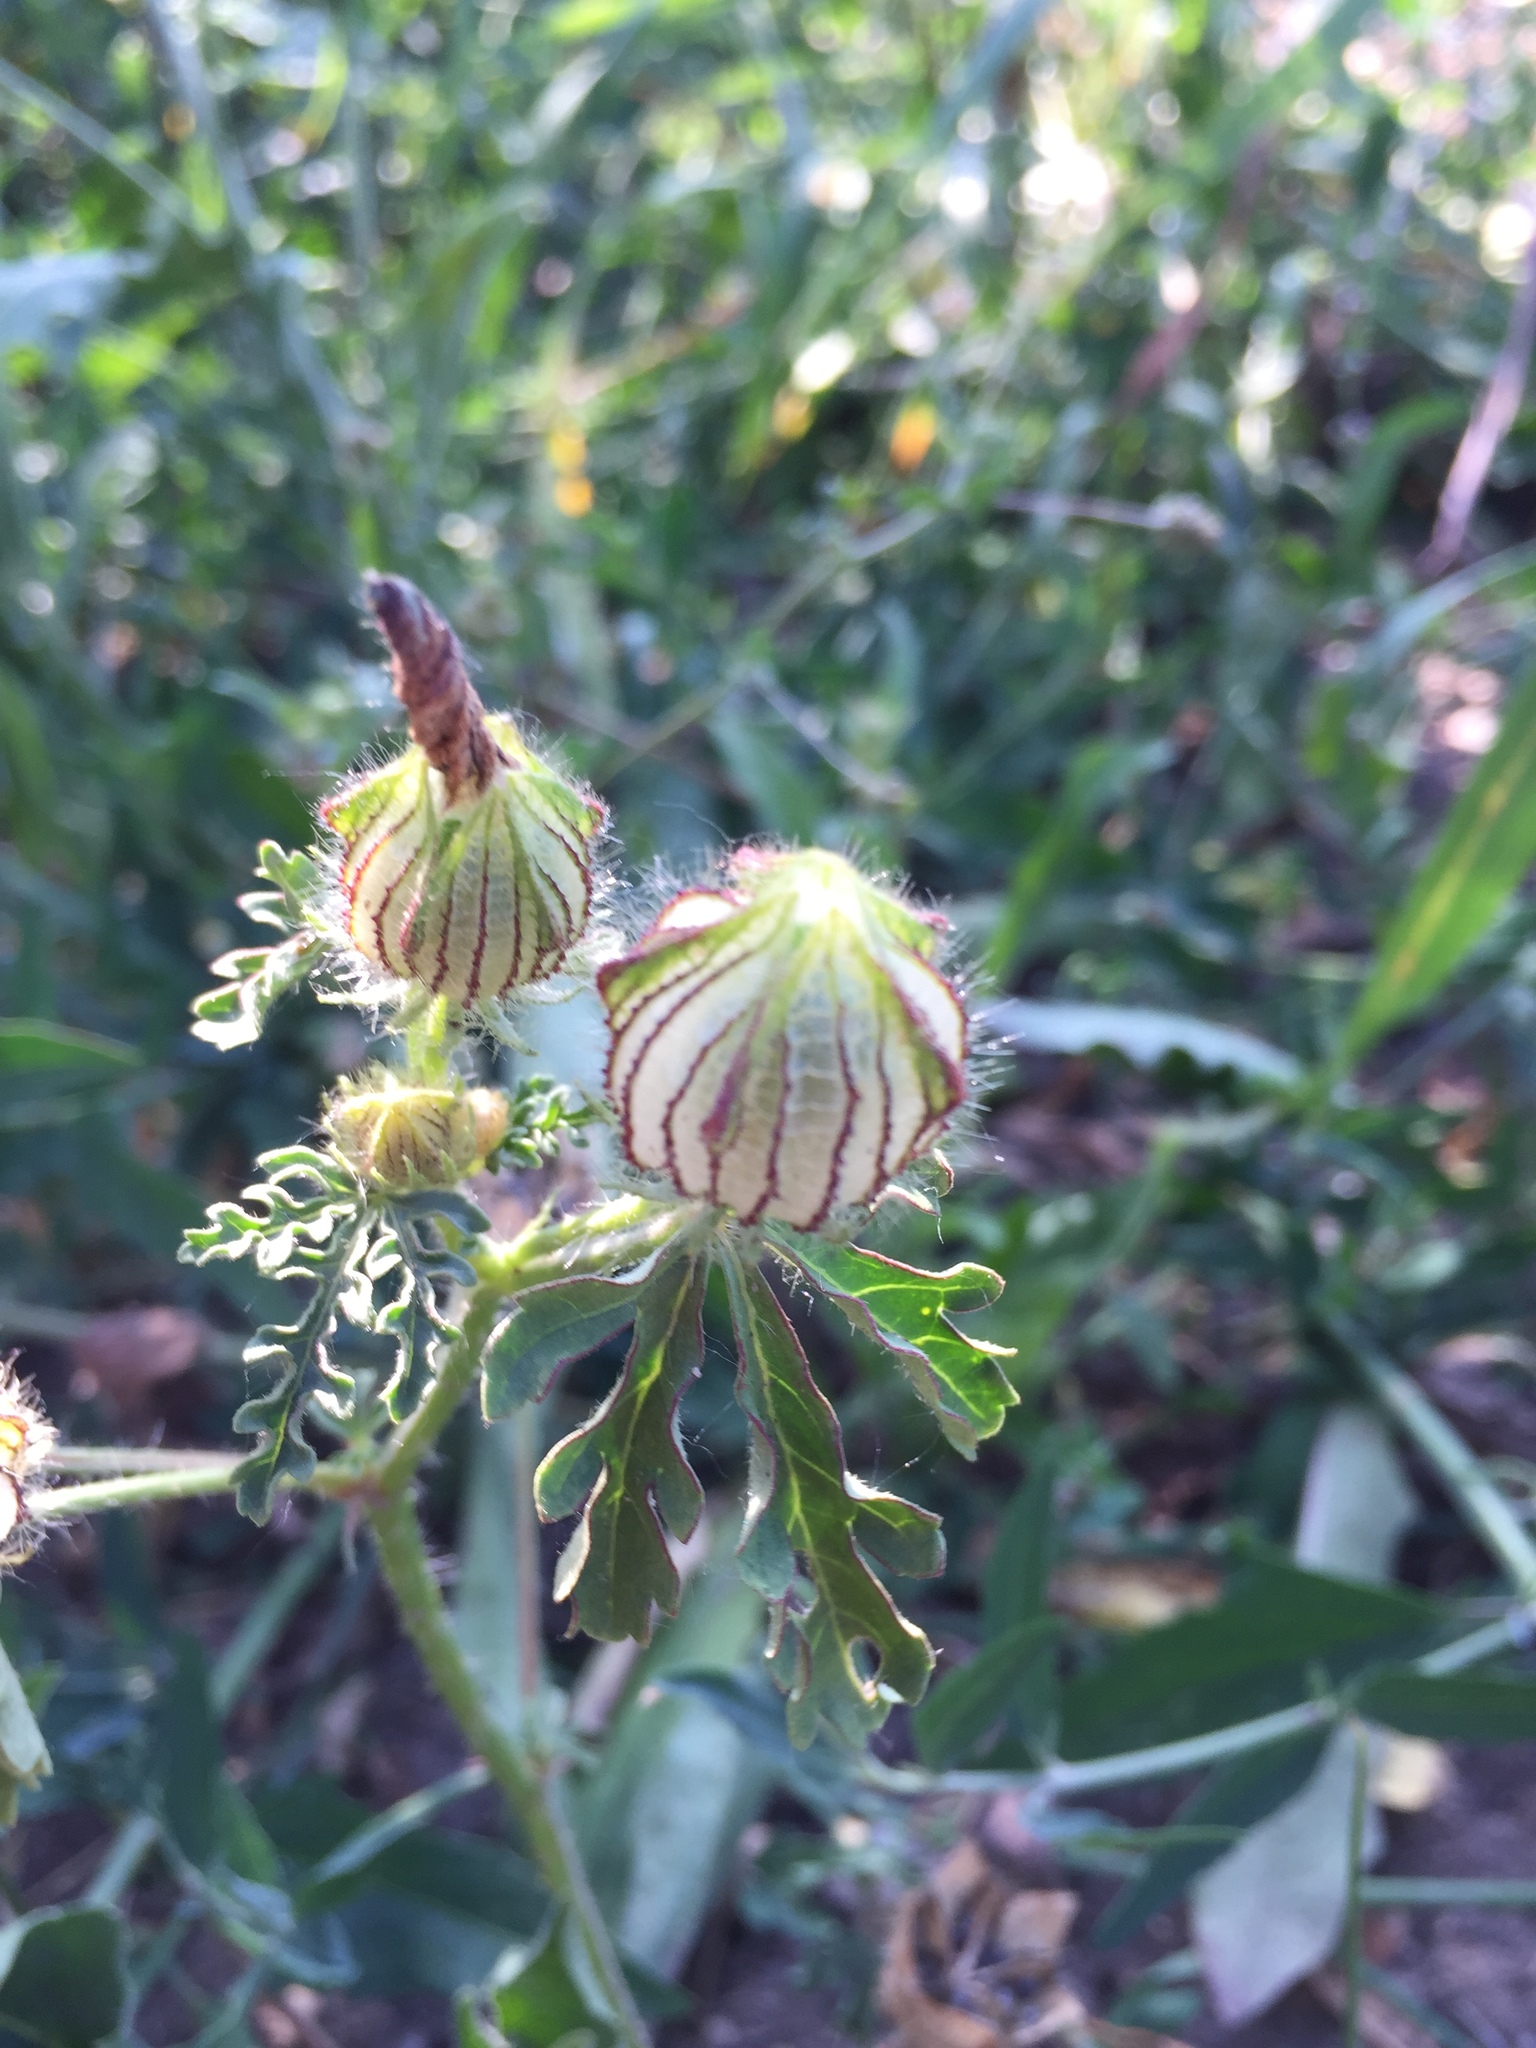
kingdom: Plantae
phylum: Tracheophyta
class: Magnoliopsida
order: Malvales
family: Malvaceae
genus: Hibiscus
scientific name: Hibiscus trionum
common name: Bladder ketmia
